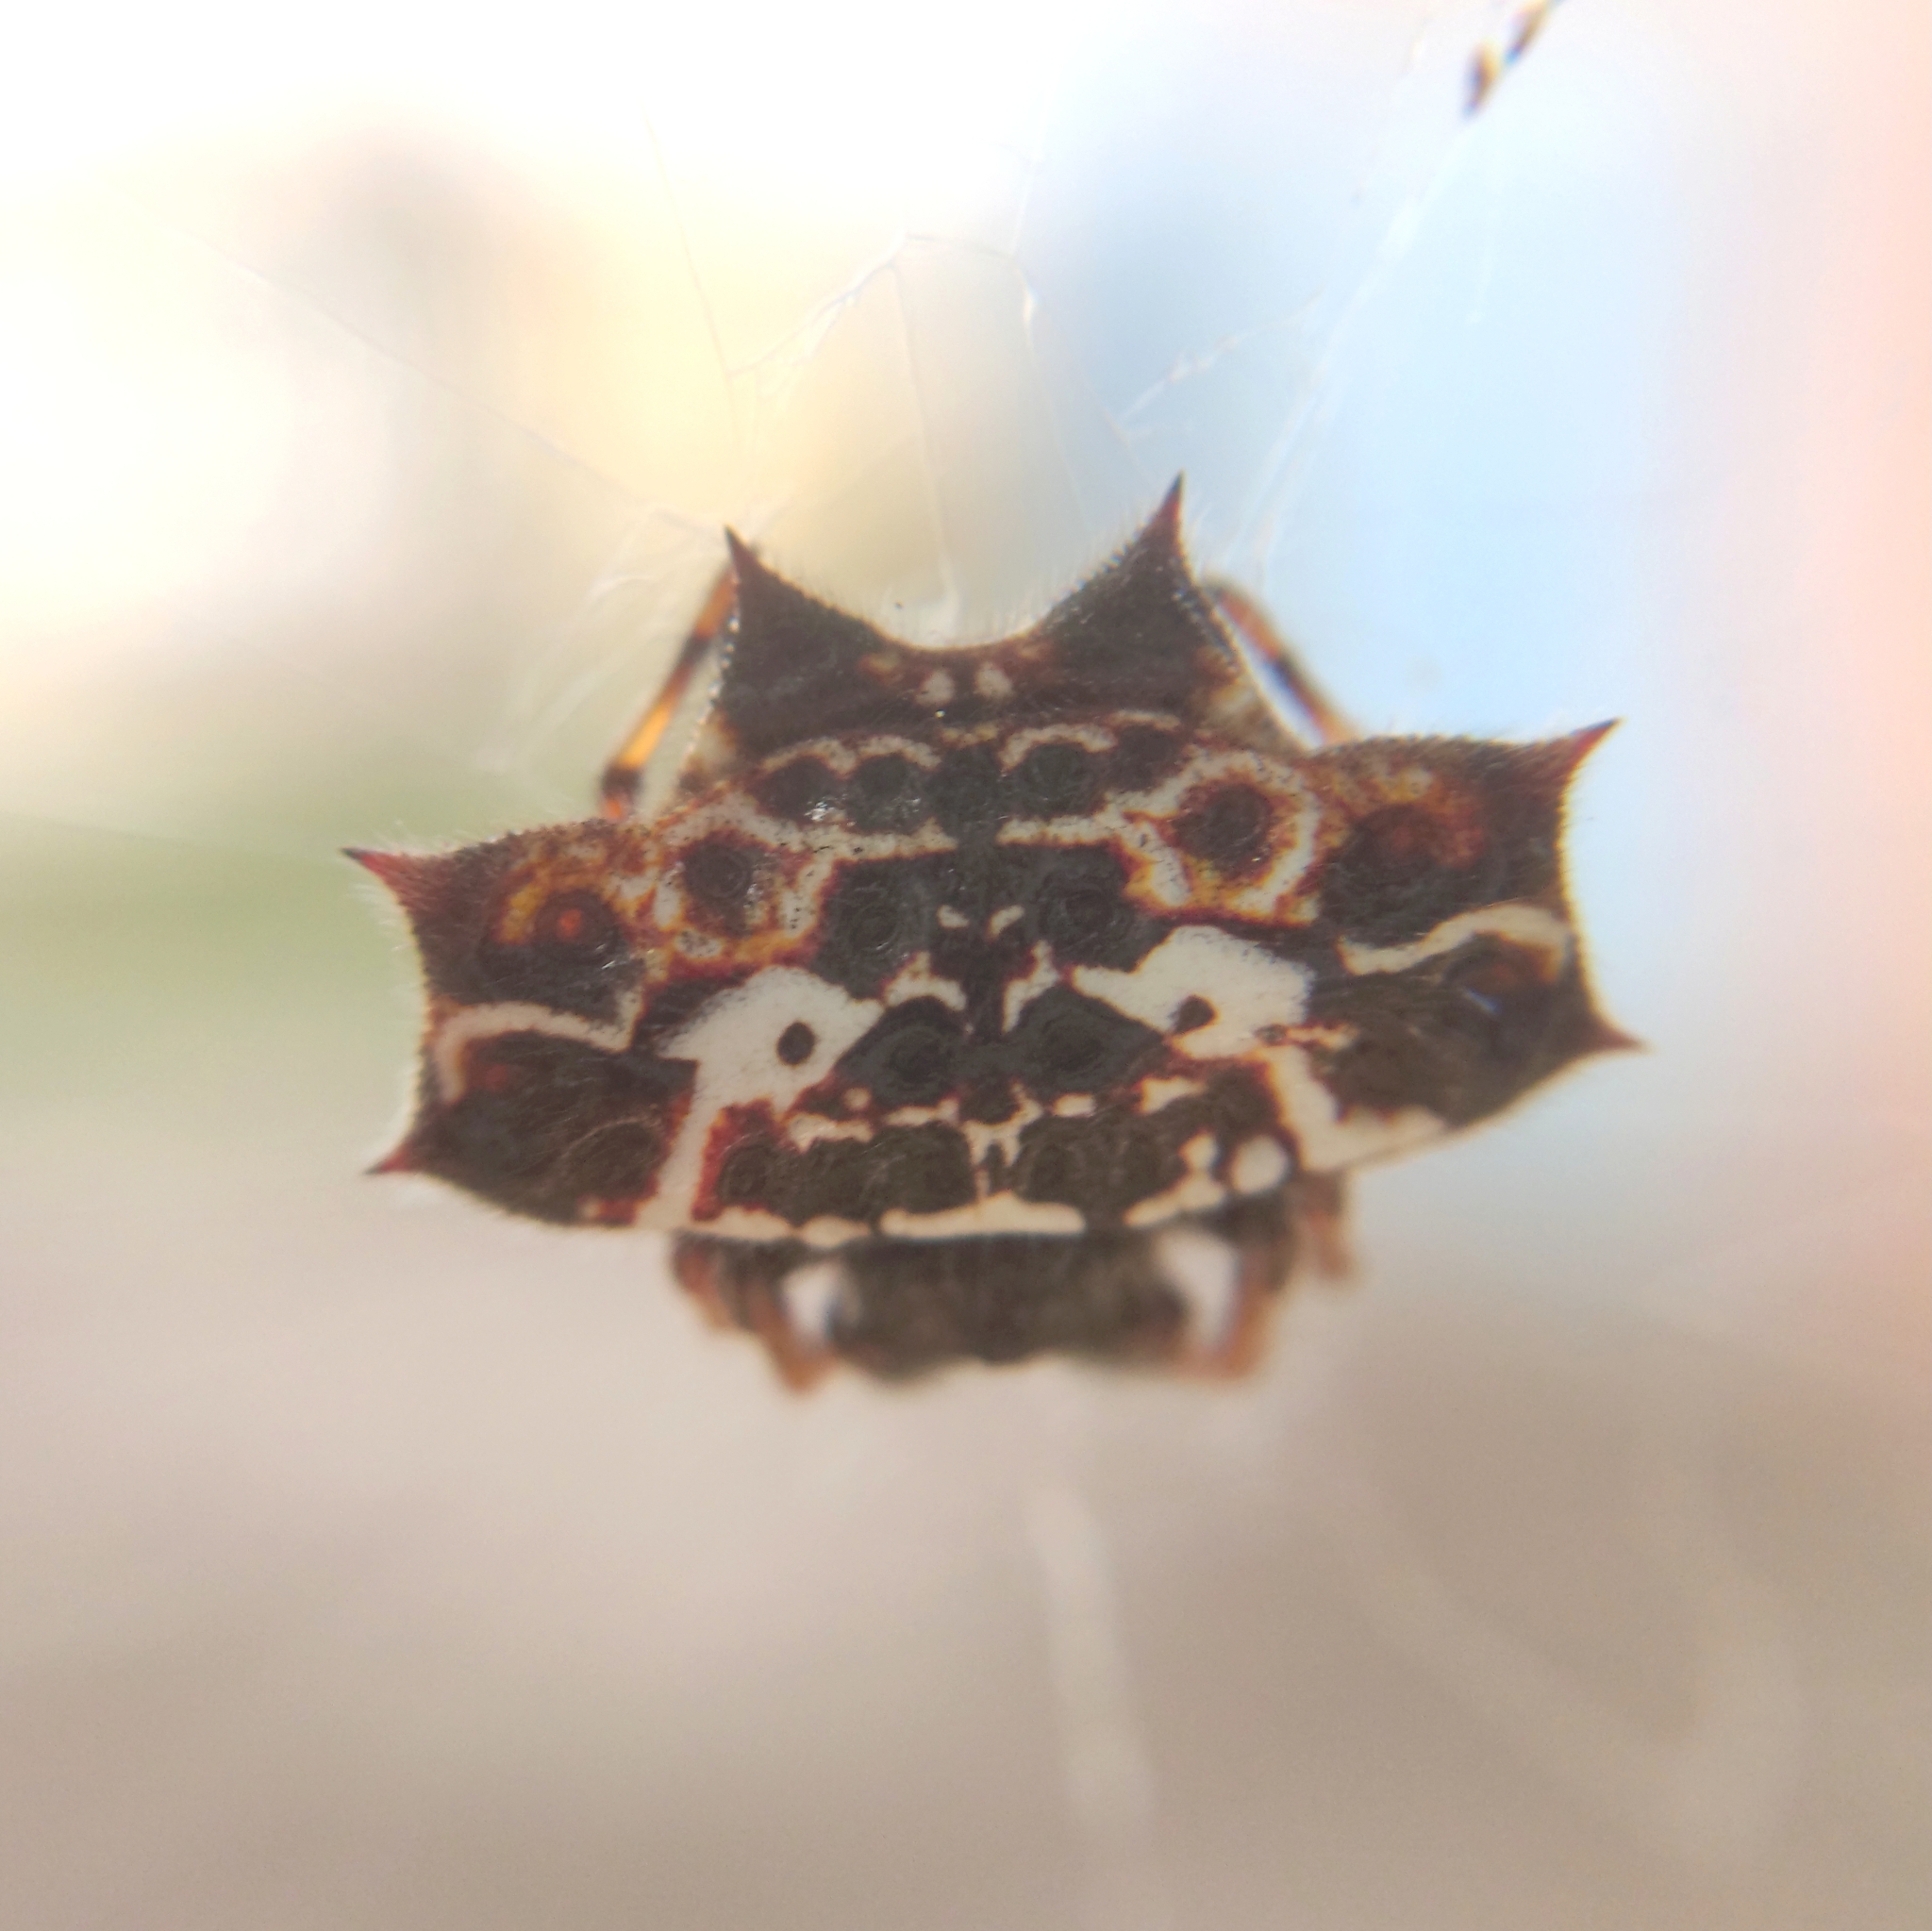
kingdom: Animalia
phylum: Arthropoda
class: Arachnida
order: Araneae
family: Araneidae
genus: Gasteracantha
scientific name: Gasteracantha cancriformis
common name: Orb weavers
